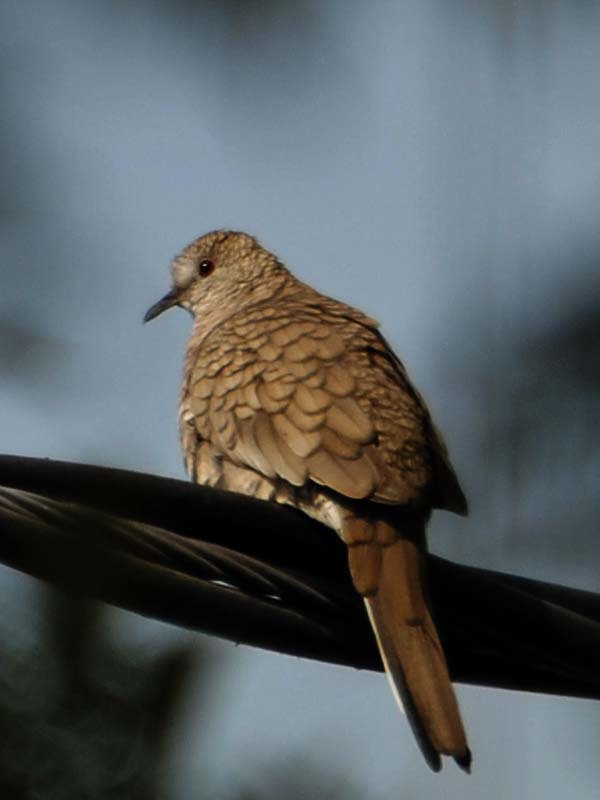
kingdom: Animalia
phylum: Chordata
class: Aves
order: Columbiformes
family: Columbidae
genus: Columbina
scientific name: Columbina inca
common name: Inca dove
